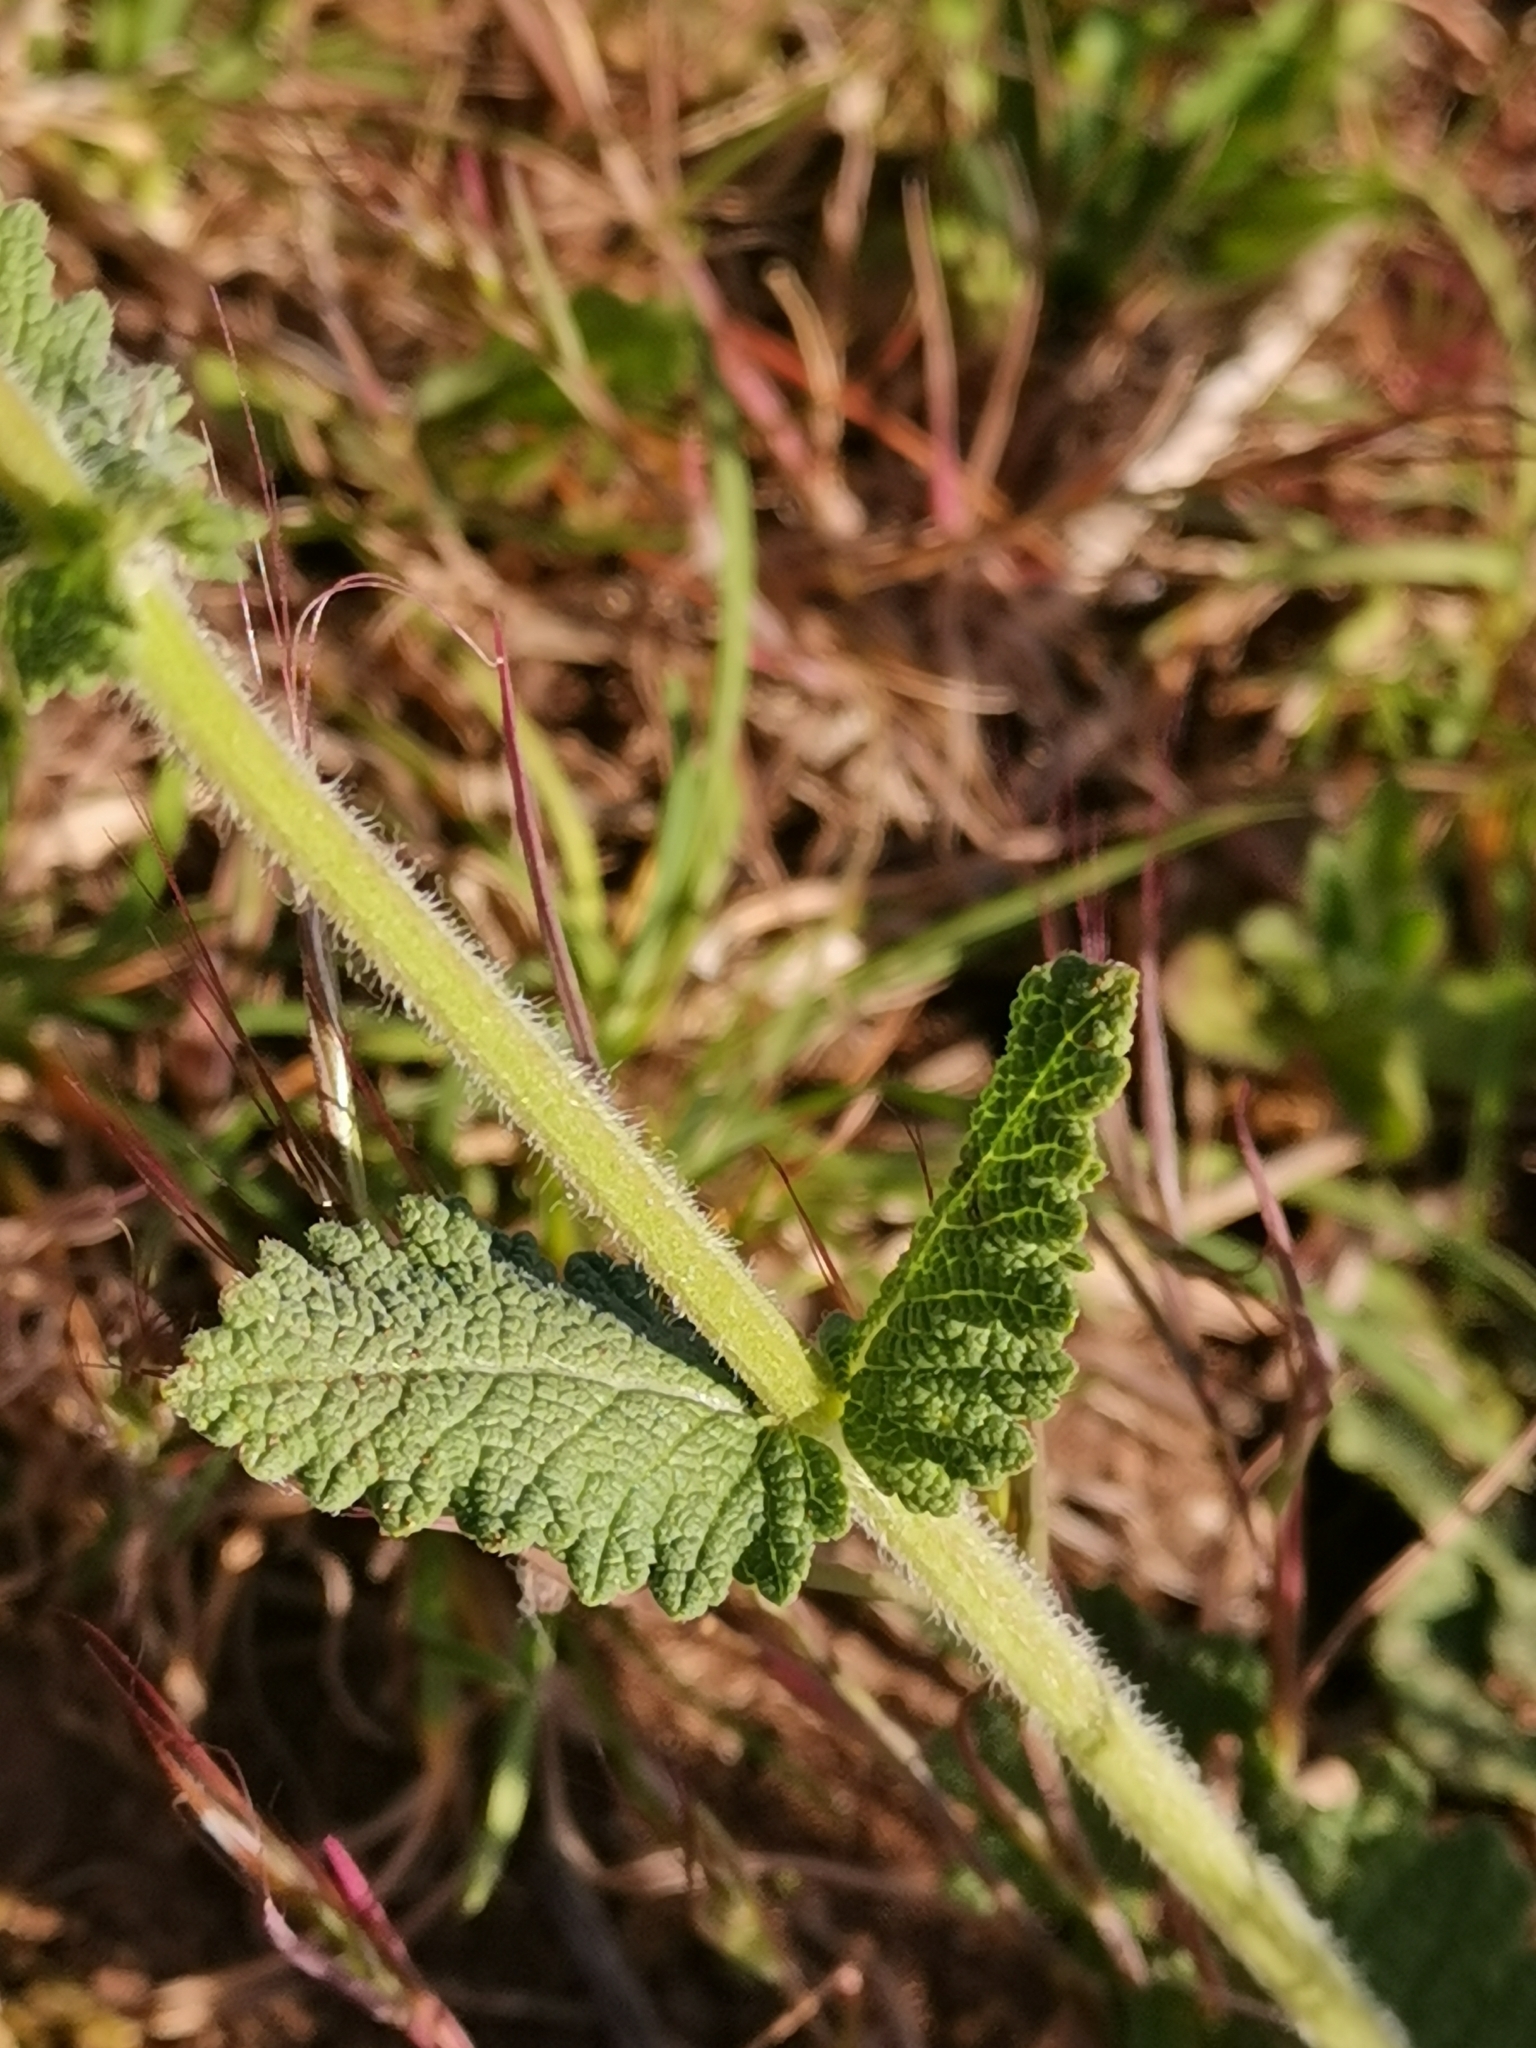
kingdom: Plantae
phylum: Tracheophyta
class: Magnoliopsida
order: Lamiales
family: Lamiaceae
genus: Salvia
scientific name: Salvia verbenaca
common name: Wild clary
